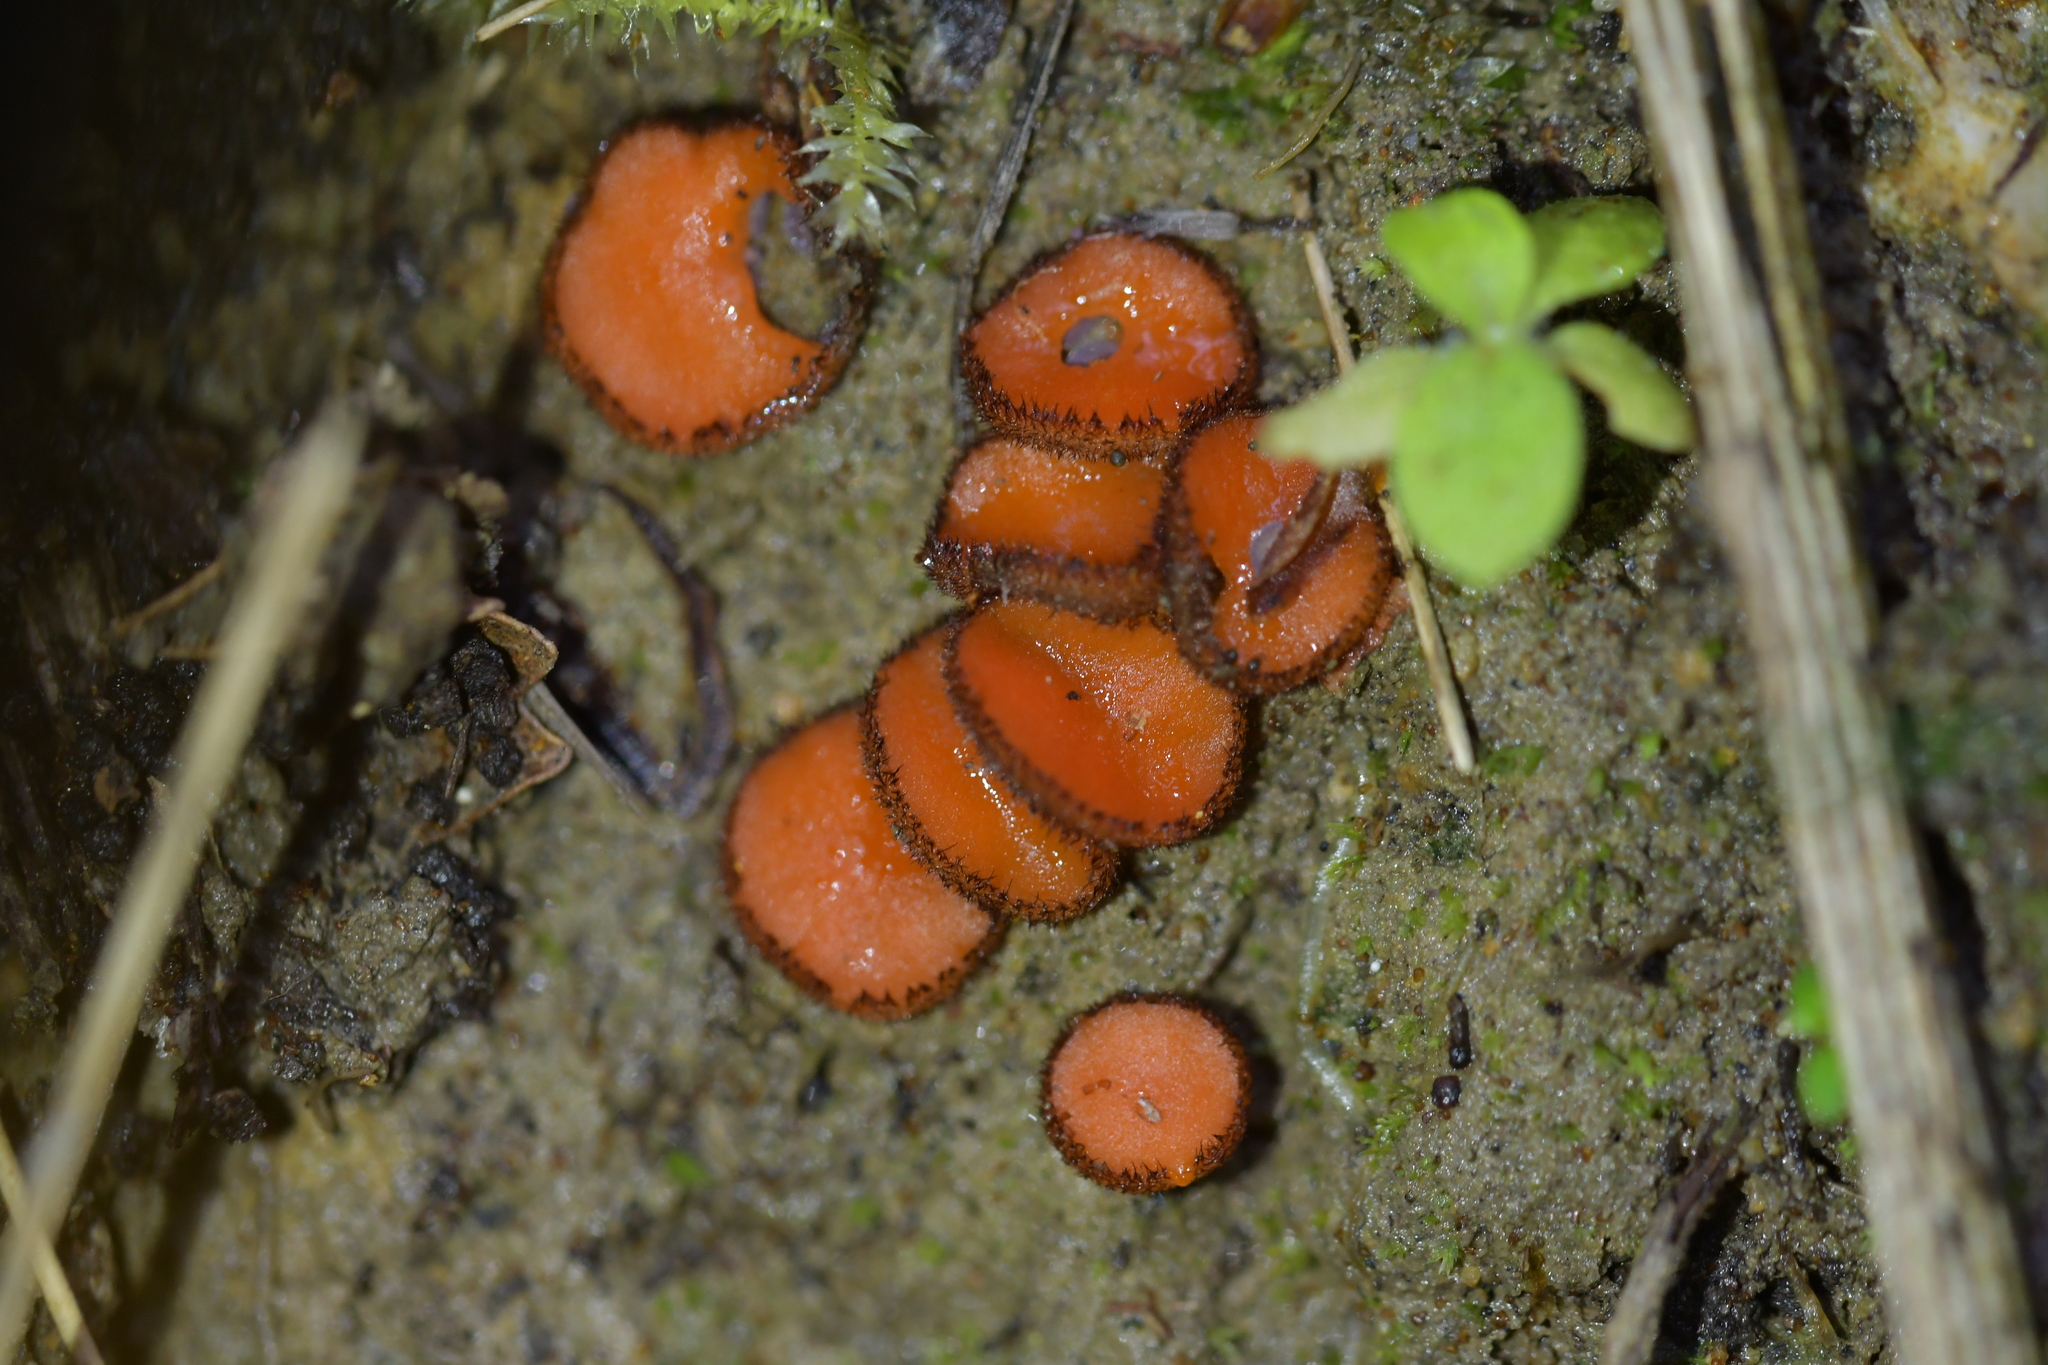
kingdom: Fungi
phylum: Ascomycota
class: Pezizomycetes
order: Pezizales
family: Pyronemataceae
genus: Scutellinia
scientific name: Scutellinia
